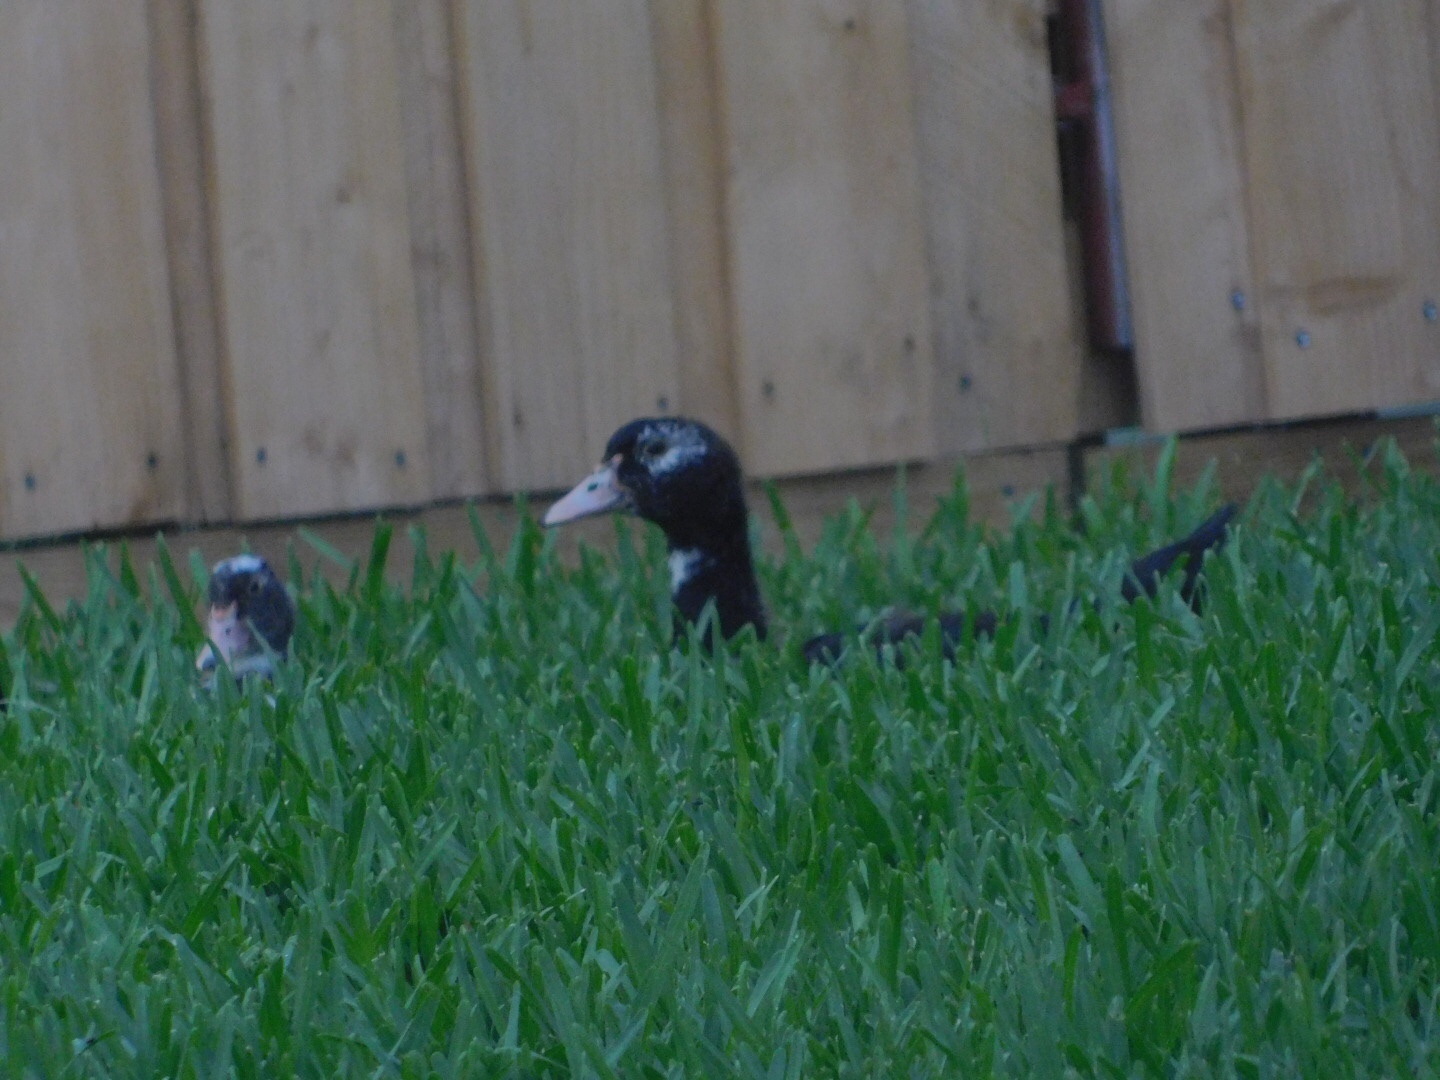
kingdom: Animalia
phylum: Chordata
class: Aves
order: Anseriformes
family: Anatidae
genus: Cairina
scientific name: Cairina moschata
